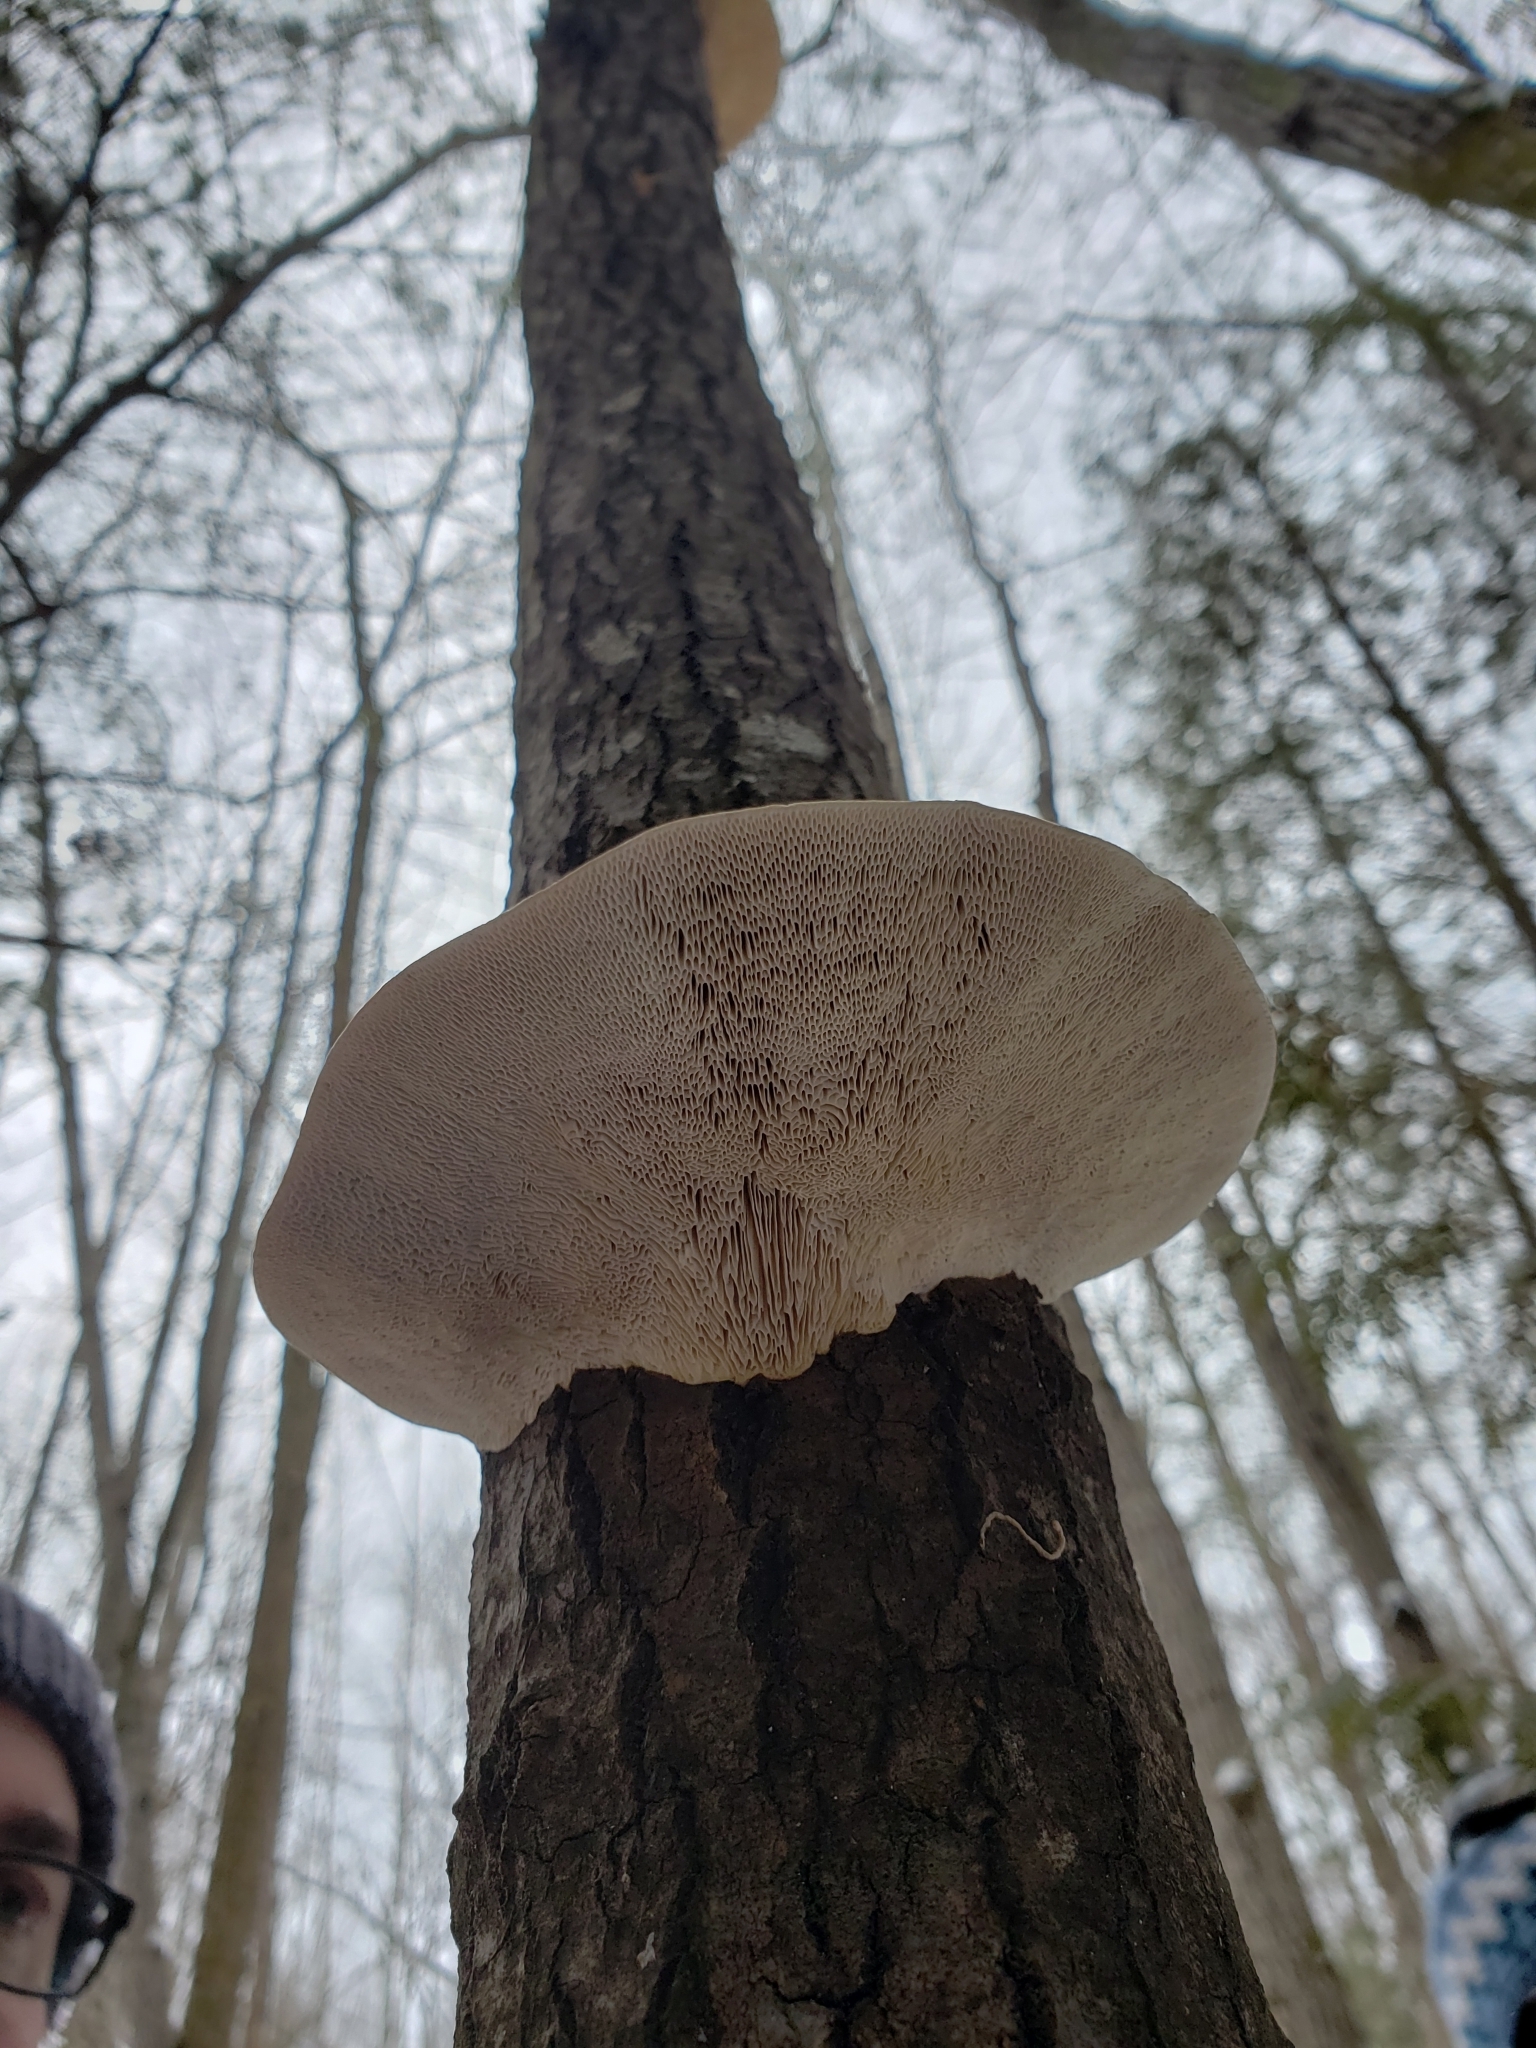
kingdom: Fungi
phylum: Basidiomycota
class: Agaricomycetes
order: Polyporales
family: Polyporaceae
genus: Trametes
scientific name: Trametes gibbosa
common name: Lumpy bracket
